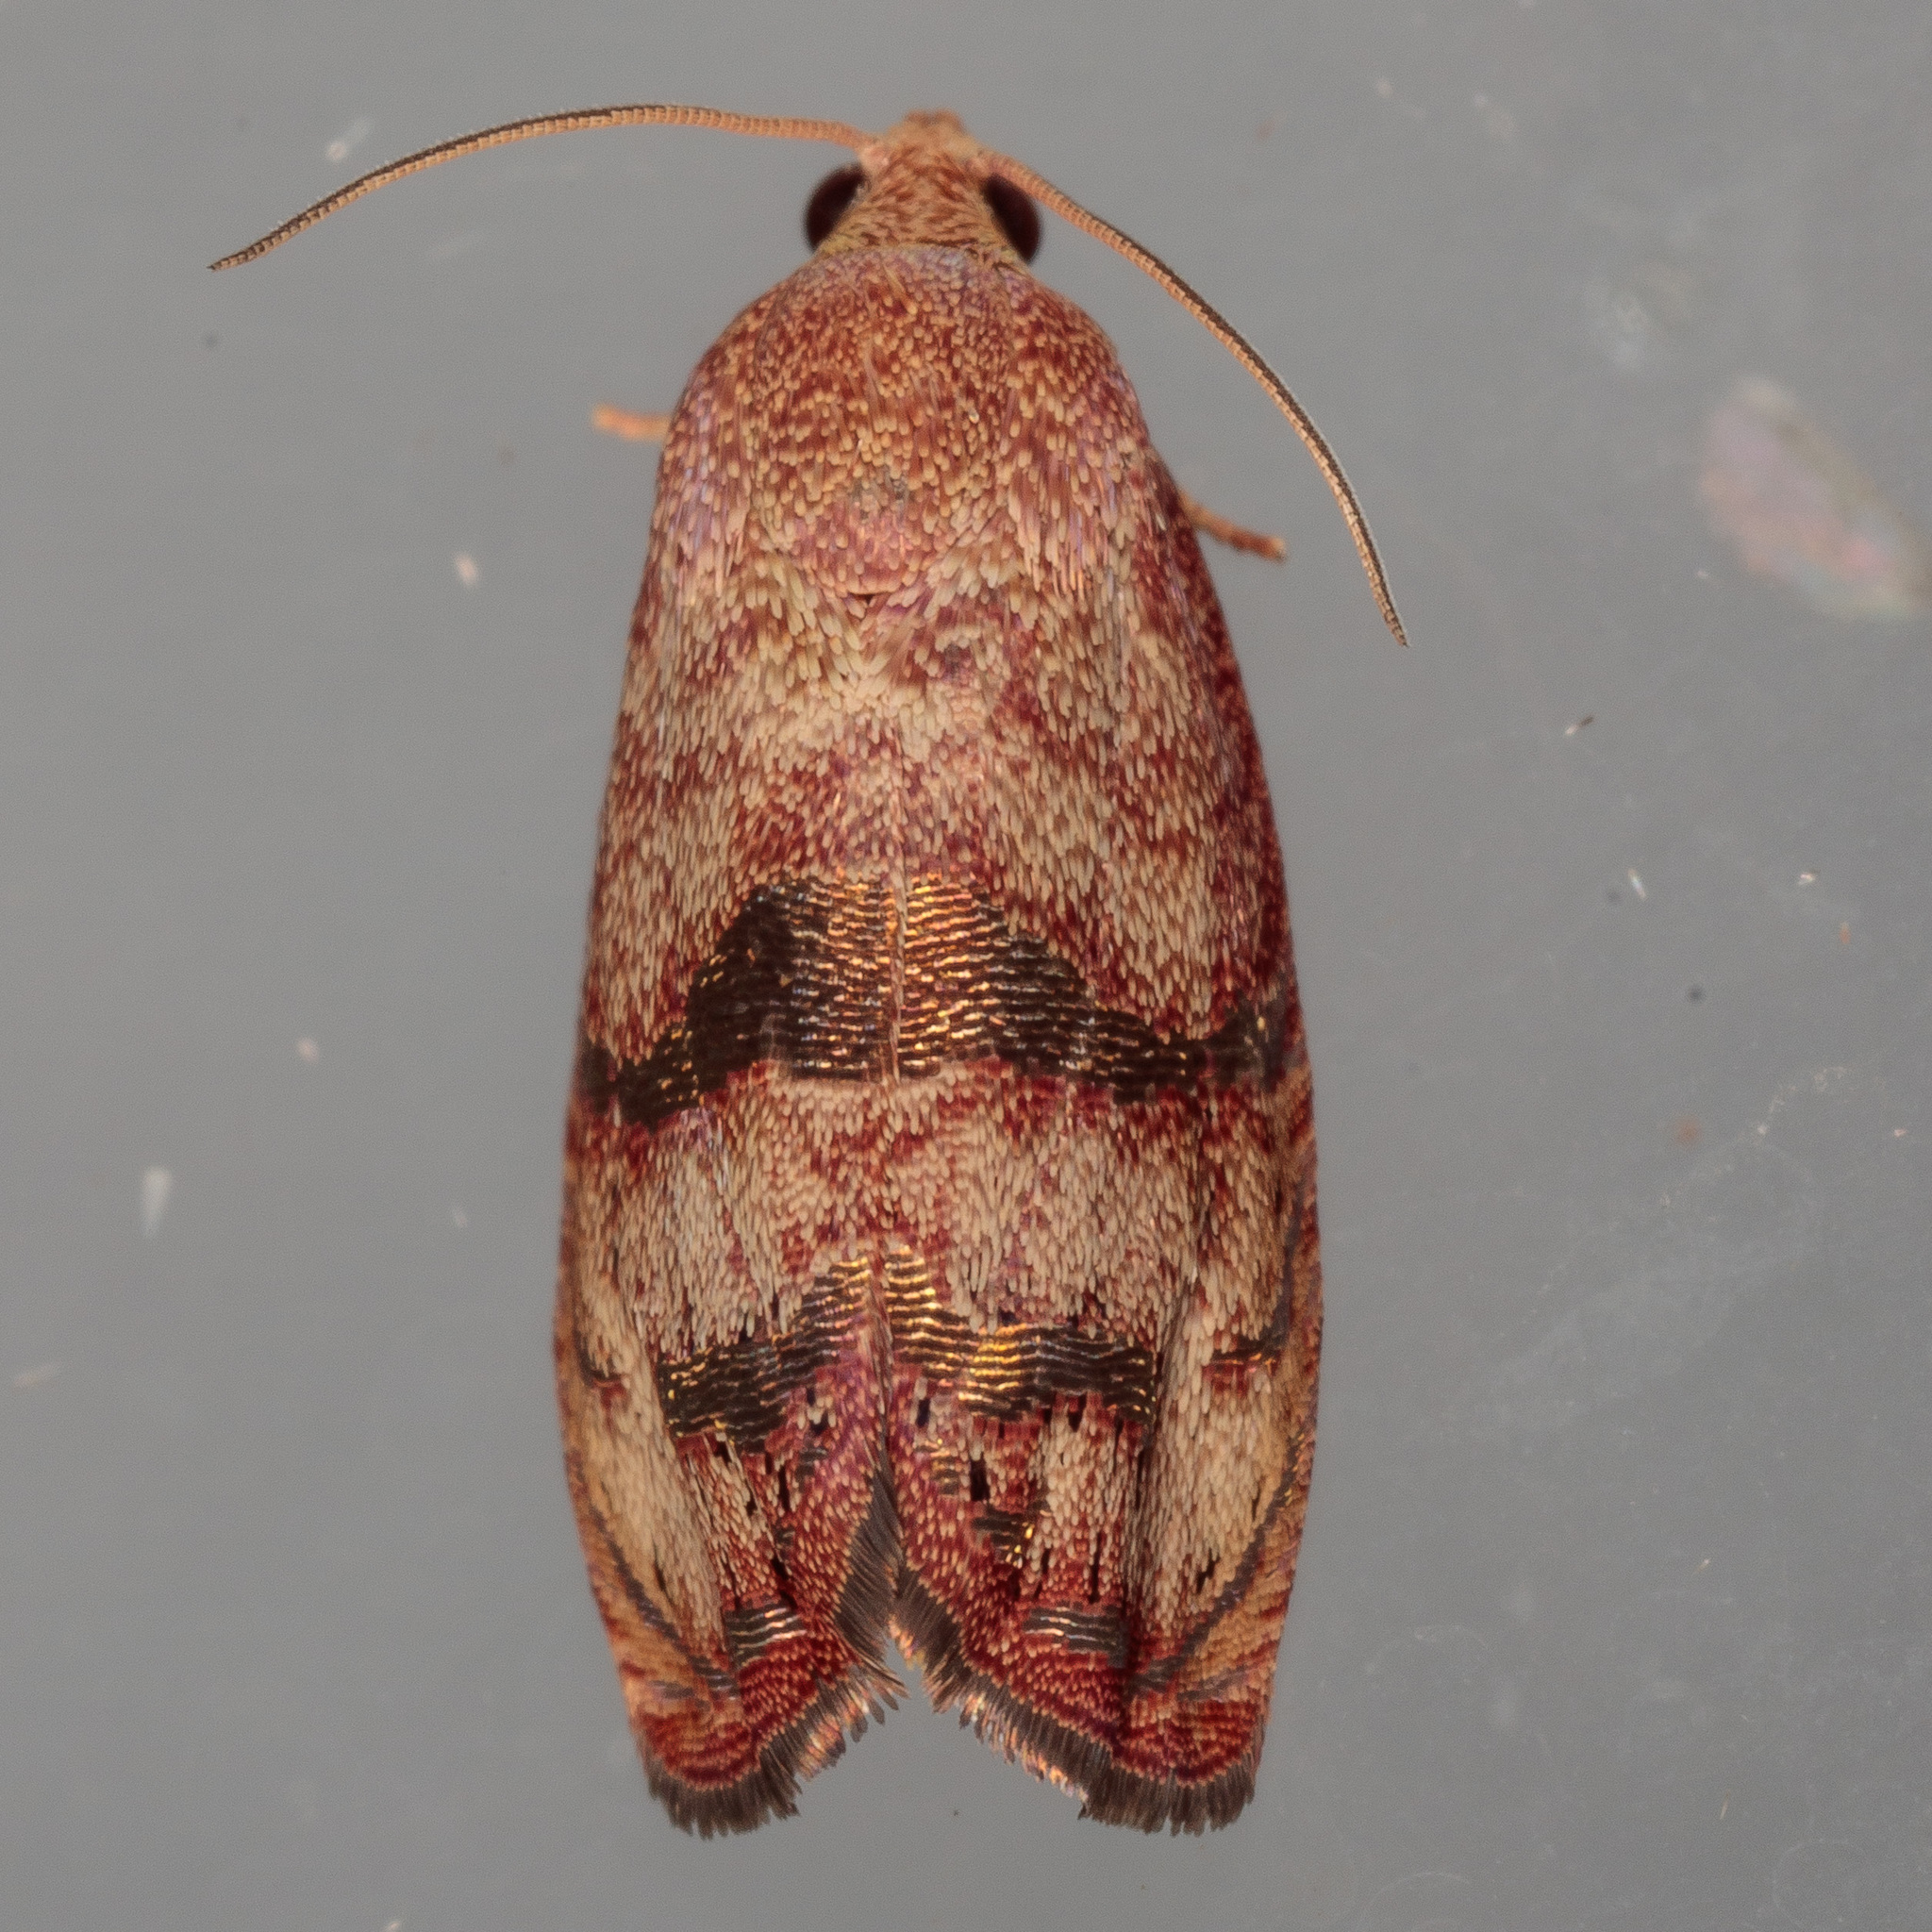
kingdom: Animalia
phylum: Arthropoda
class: Insecta
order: Lepidoptera
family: Tortricidae
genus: Cydia
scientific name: Cydia latiferreana
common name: Filbertworm moth
